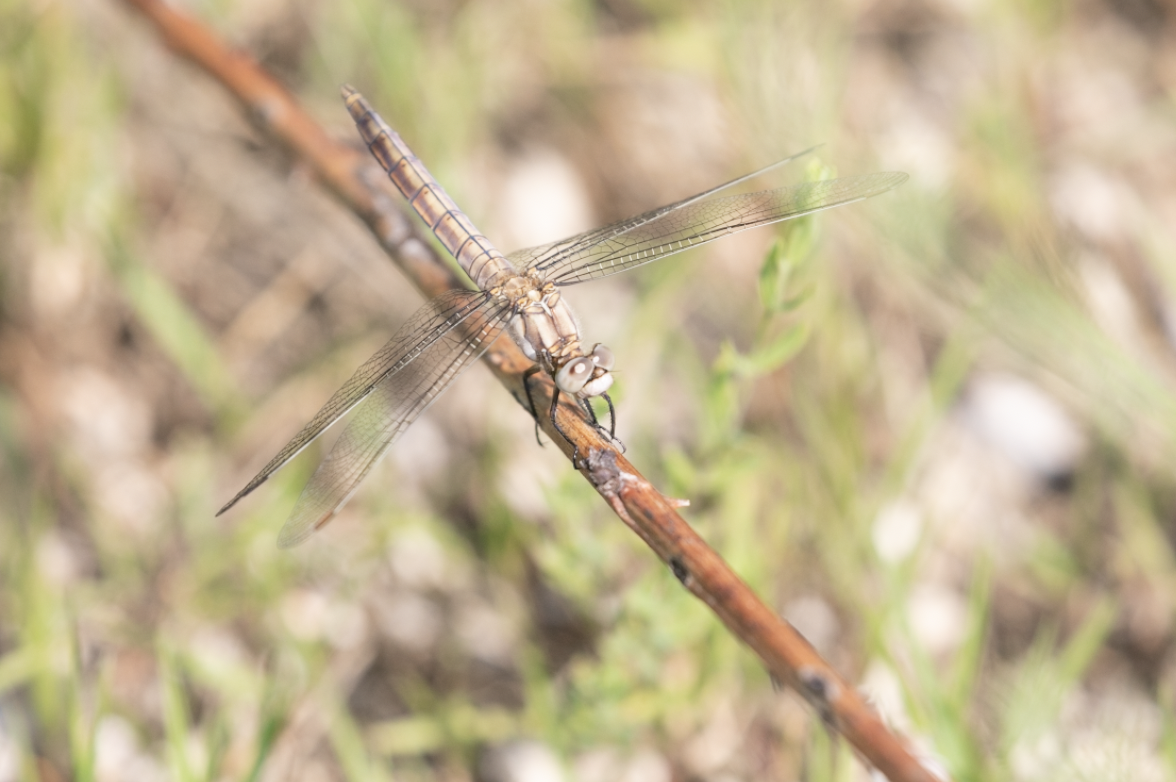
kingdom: Animalia
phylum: Arthropoda
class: Insecta
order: Odonata
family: Libellulidae
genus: Orthetrum
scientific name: Orthetrum brunneum
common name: Southern skimmer
